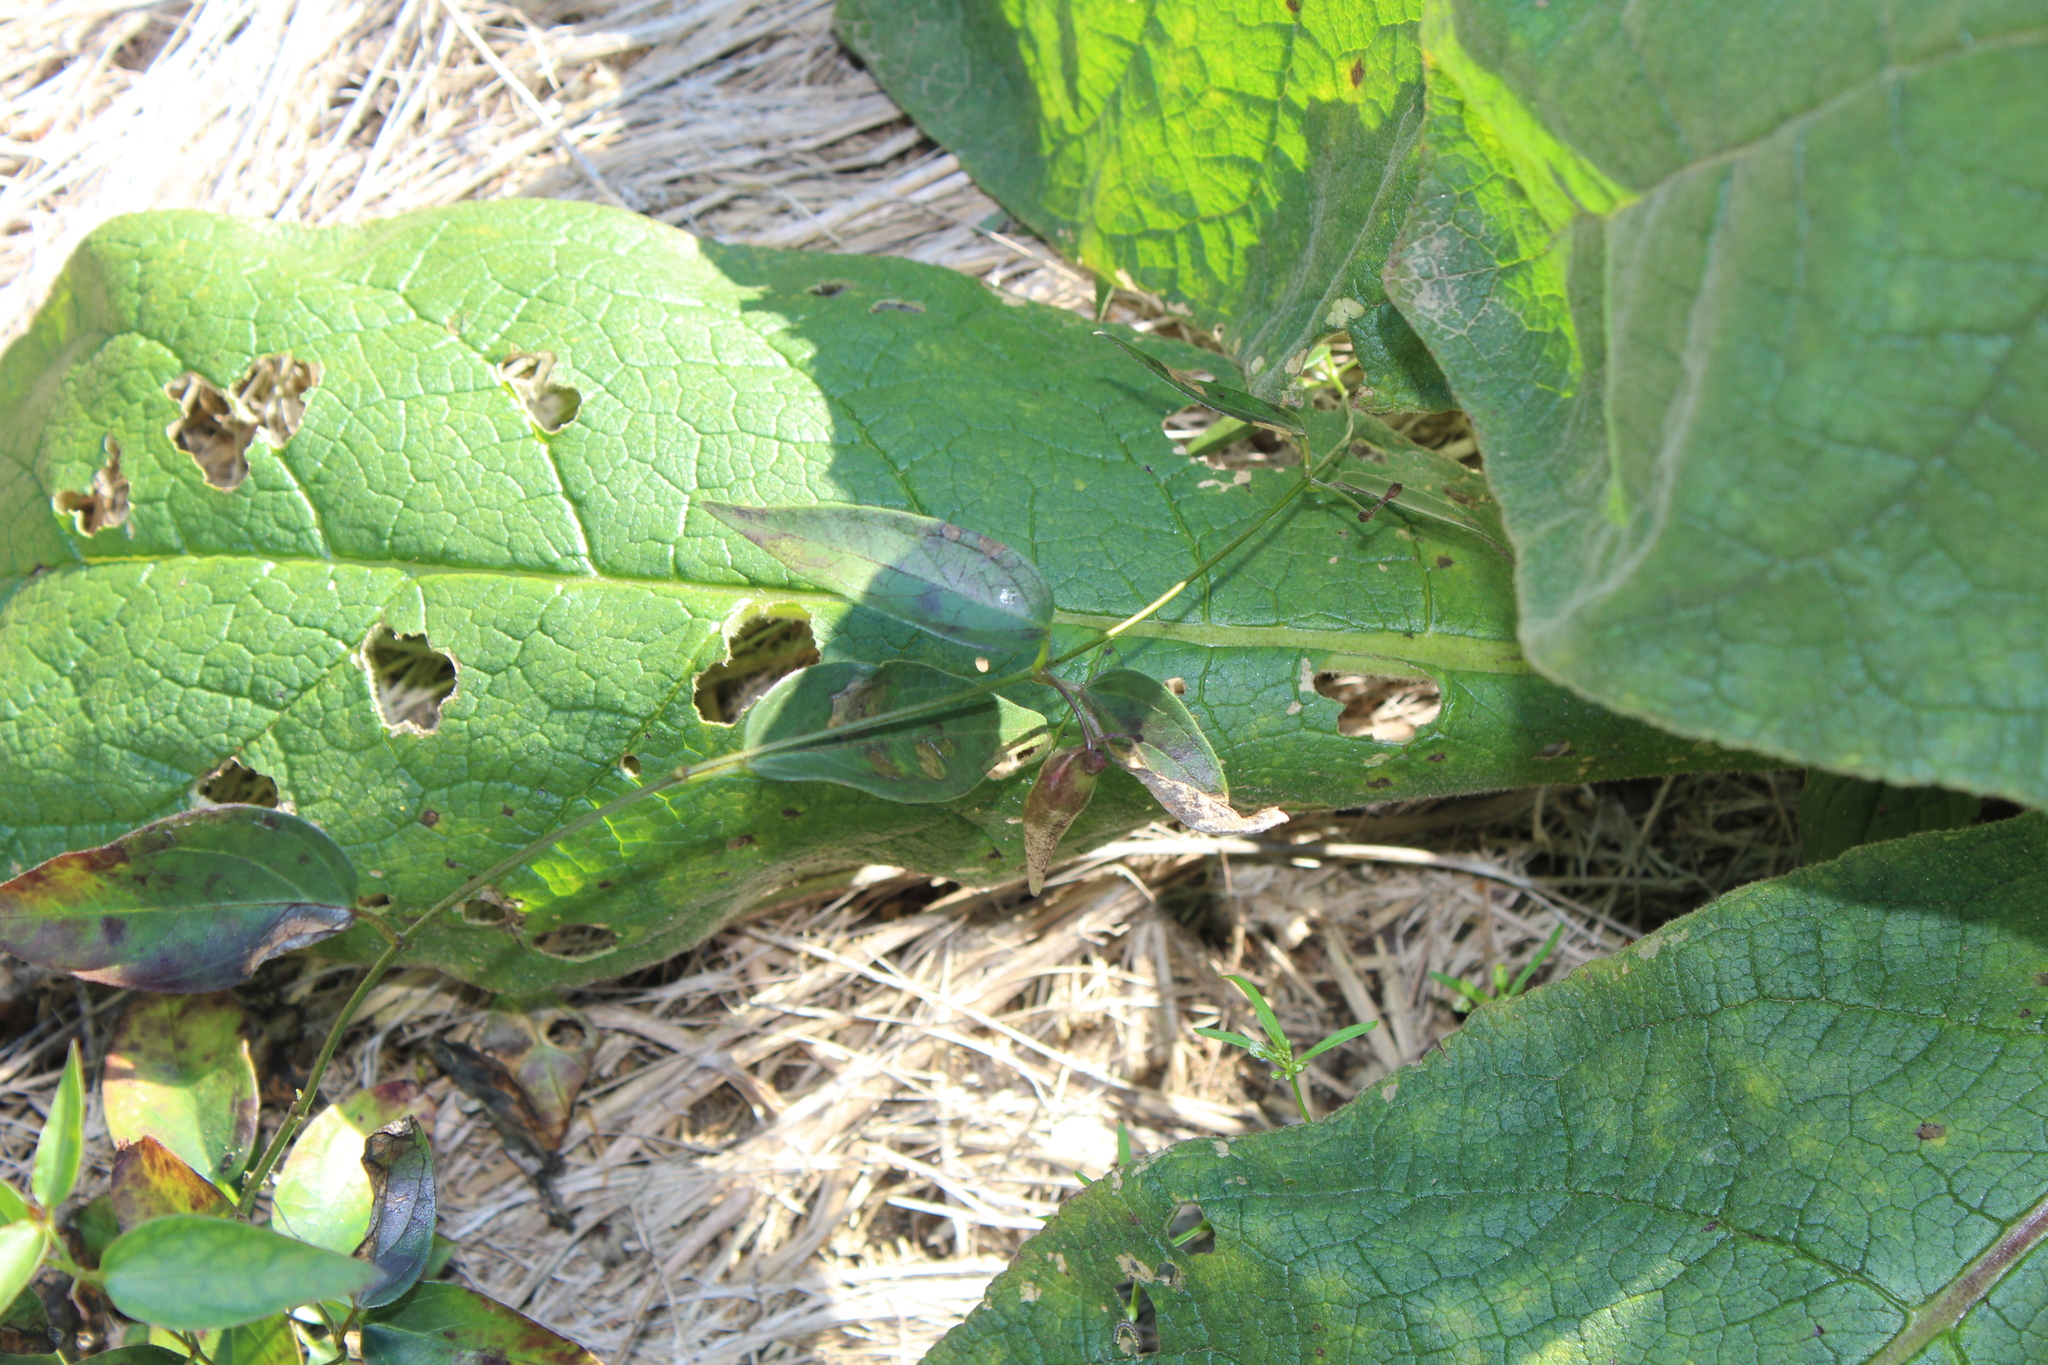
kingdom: Plantae
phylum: Tracheophyta
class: Magnoliopsida
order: Gentianales
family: Apocynaceae
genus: Vincetoxicum
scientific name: Vincetoxicum nigrum
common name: Black swallow-wort
